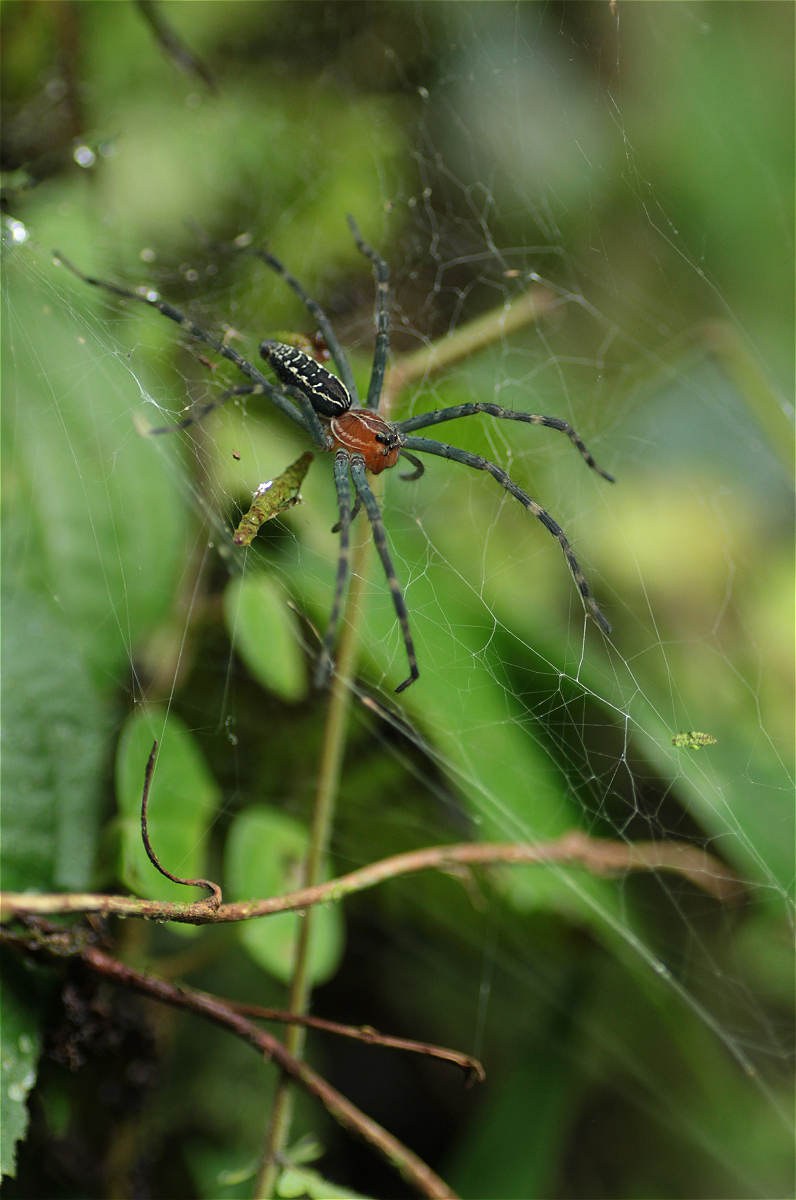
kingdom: Animalia
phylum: Arthropoda
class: Arachnida
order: Araneae
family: Lycosidae
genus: Aglaoctenus
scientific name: Aglaoctenus castaneus
